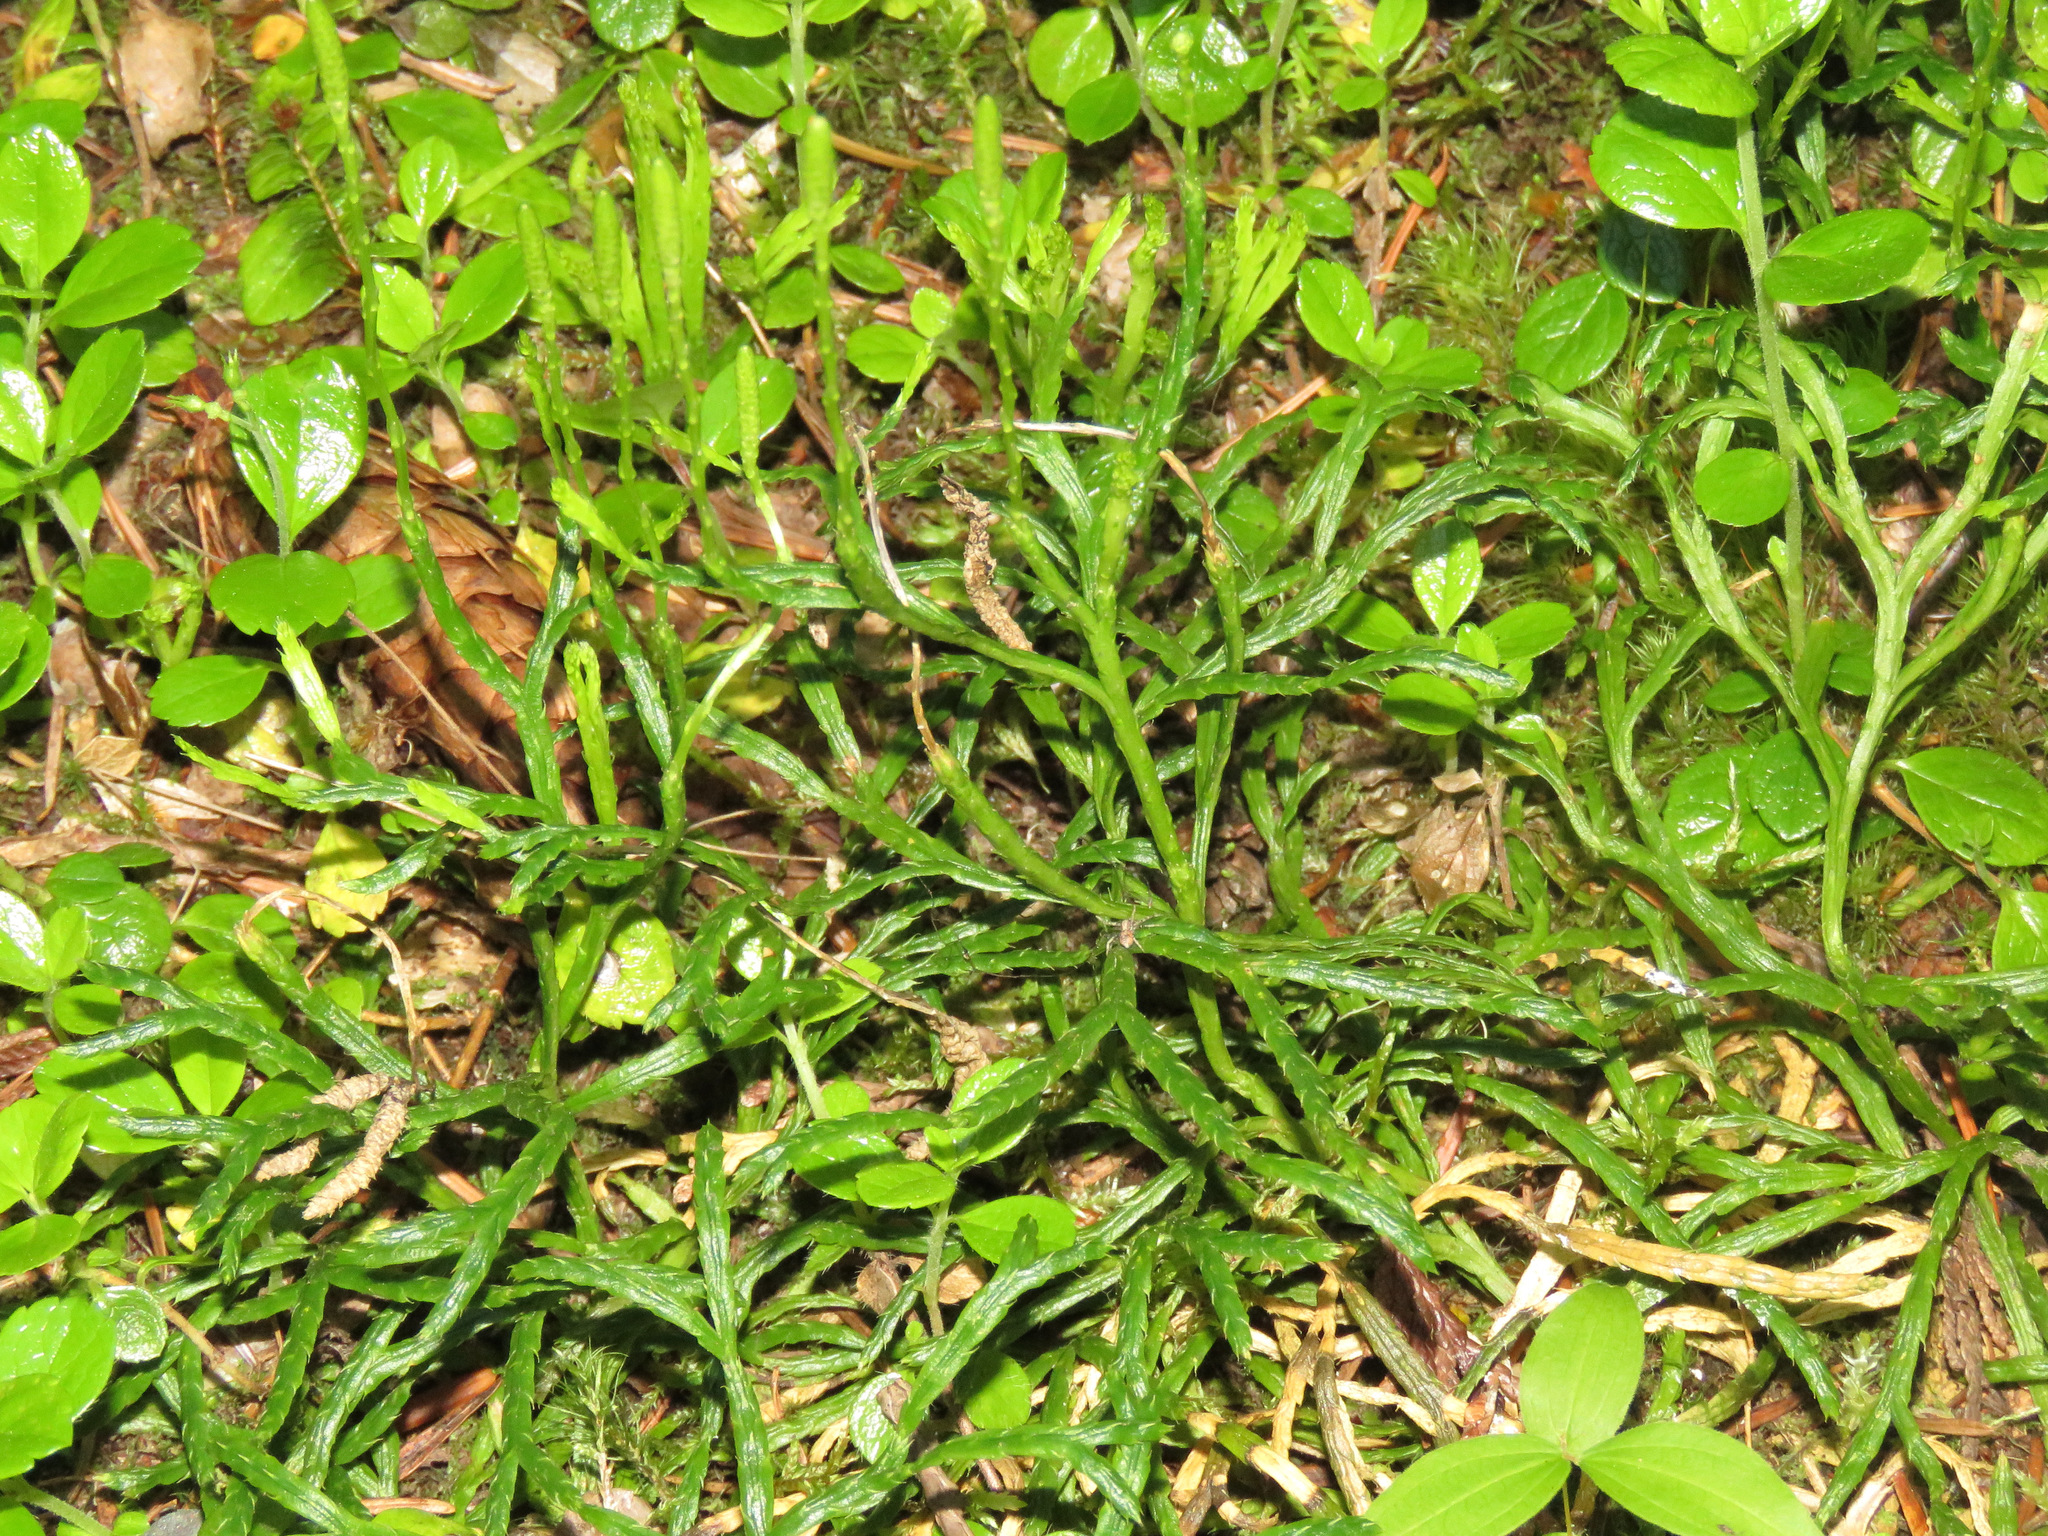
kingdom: Plantae
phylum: Tracheophyta
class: Lycopodiopsida
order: Lycopodiales
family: Lycopodiaceae
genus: Diphasiastrum
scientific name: Diphasiastrum complanatum
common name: Northern running-pine
